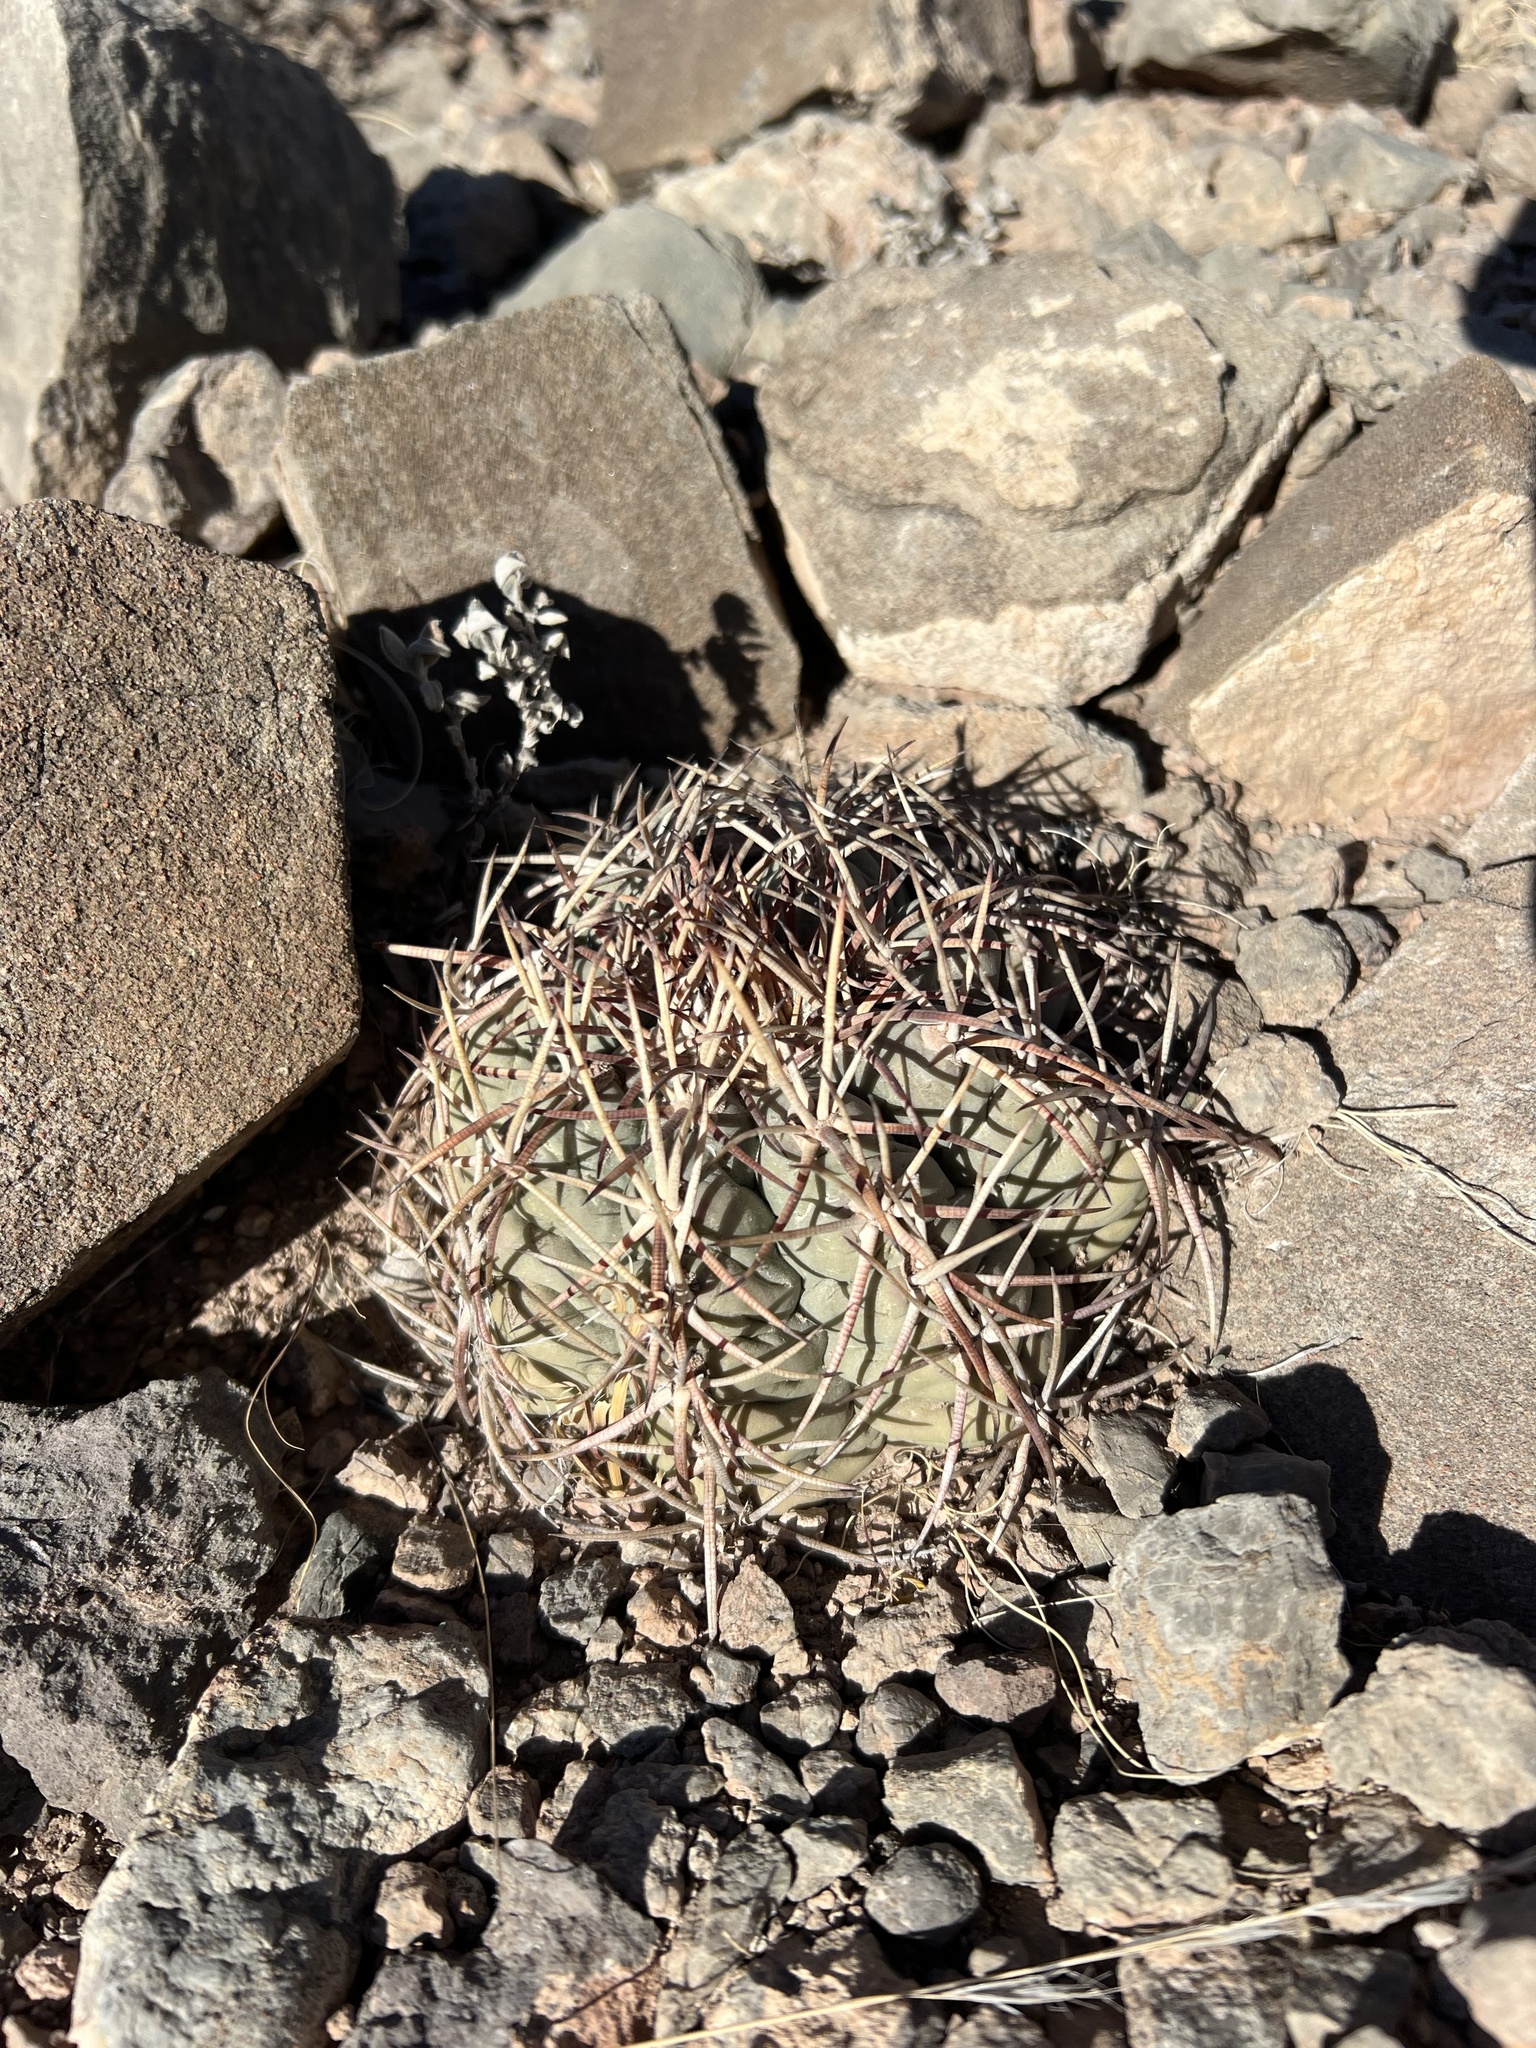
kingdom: Plantae
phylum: Tracheophyta
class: Magnoliopsida
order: Caryophyllales
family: Cactaceae
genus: Echinocactus
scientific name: Echinocactus horizonthalonius
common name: Devilshead
